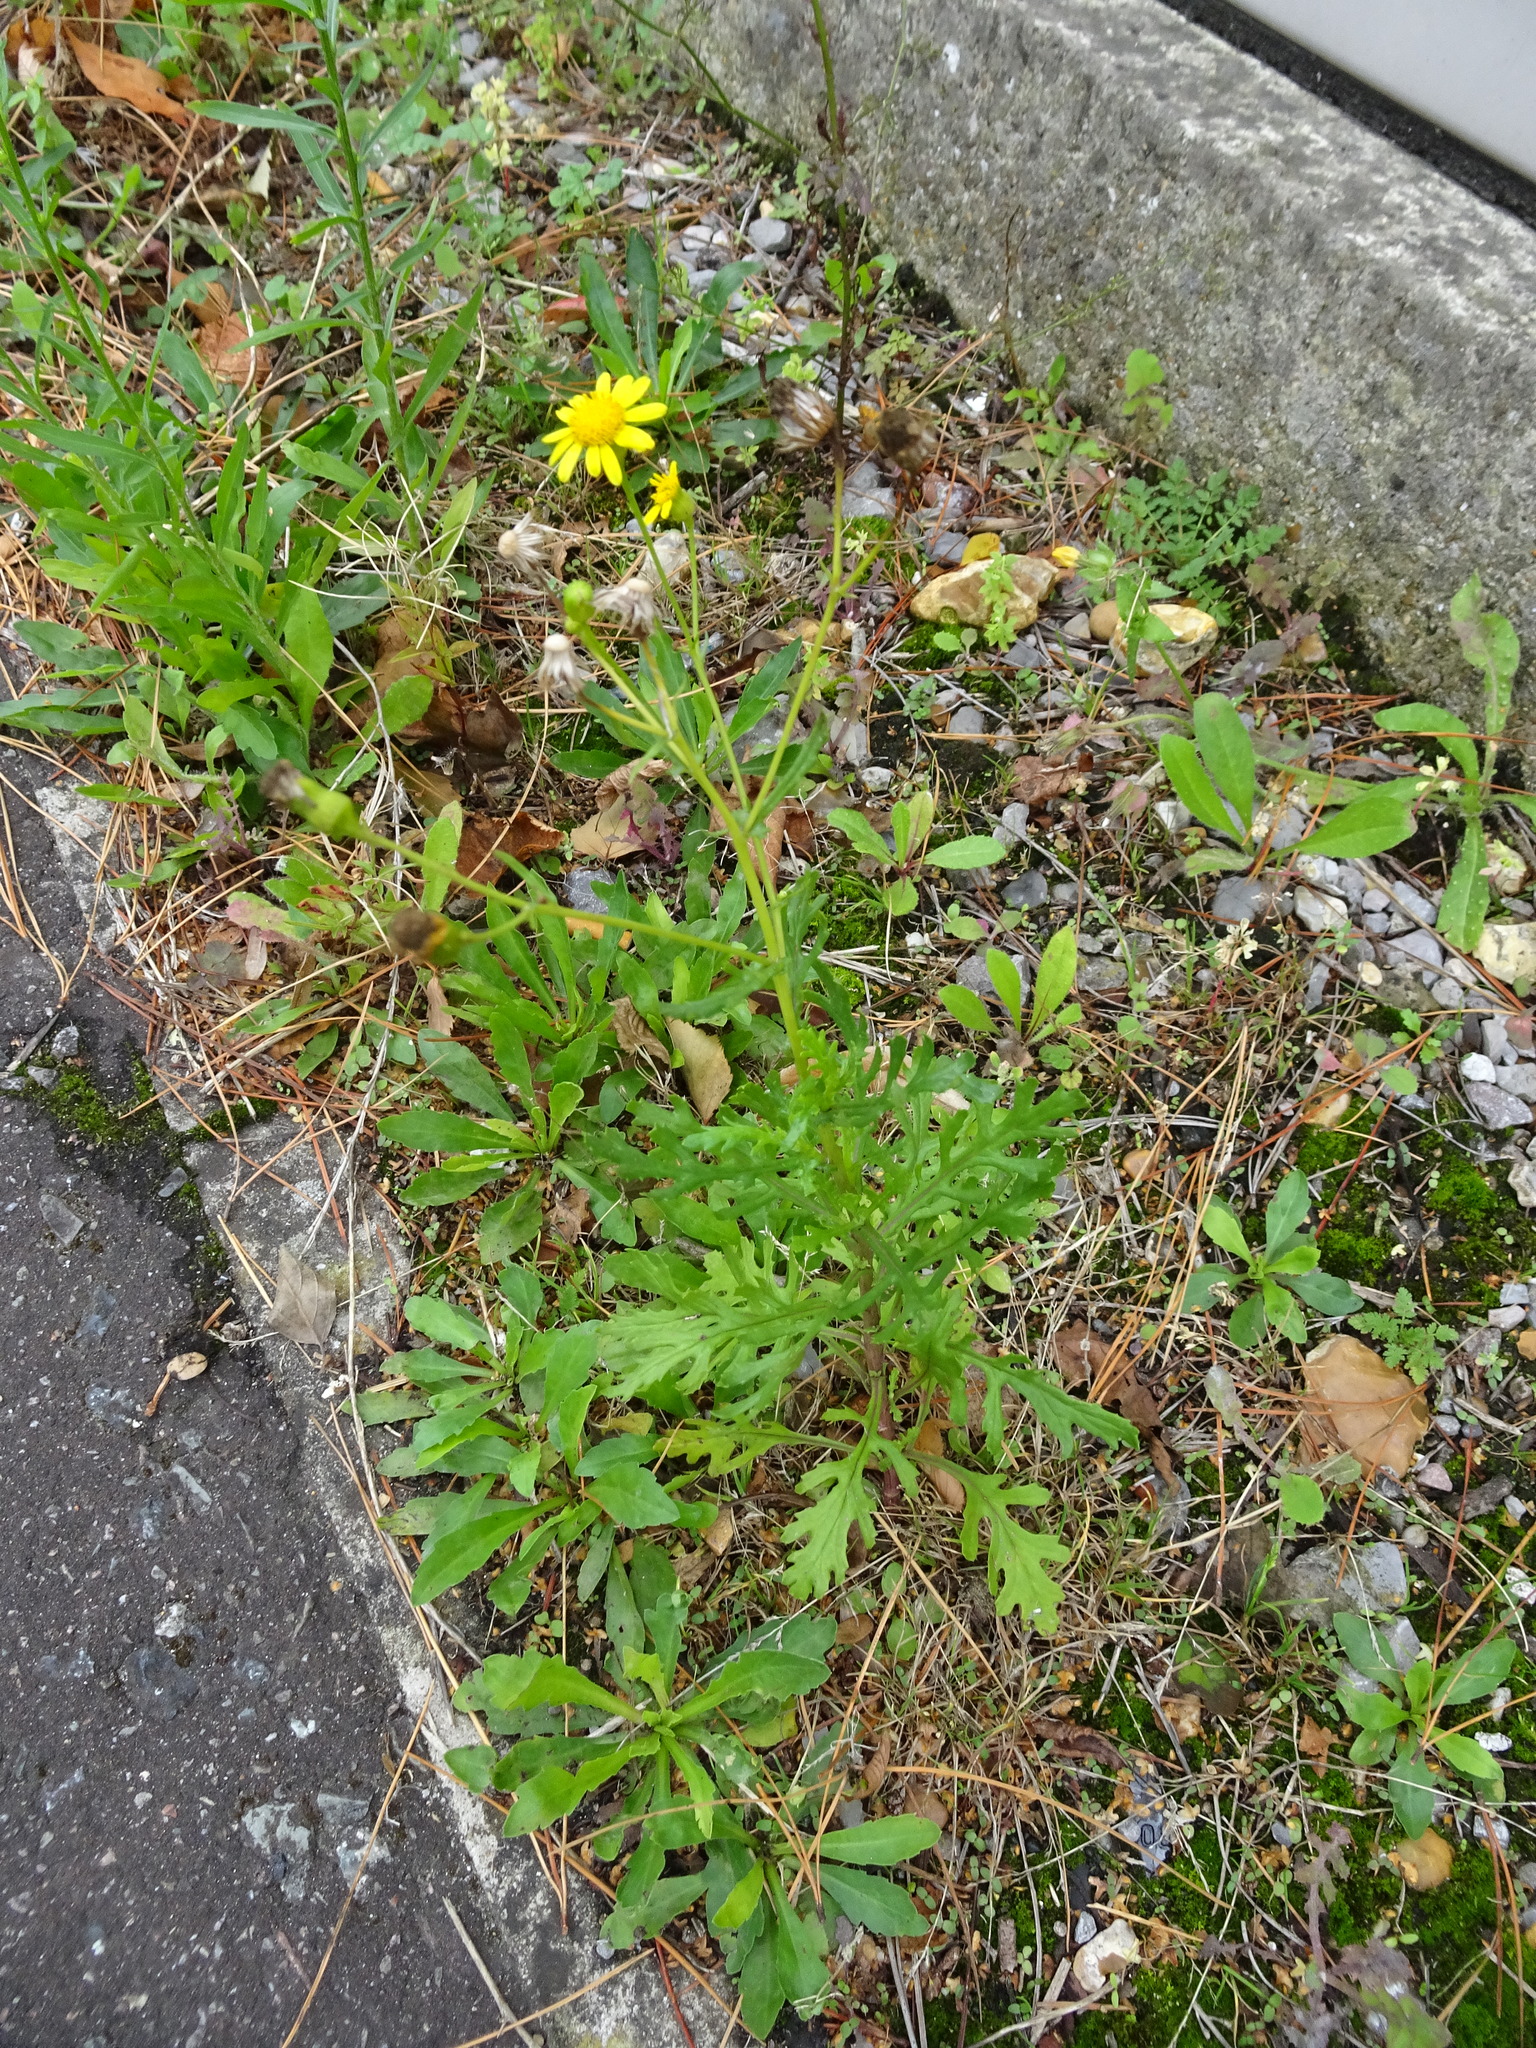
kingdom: Plantae
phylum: Tracheophyta
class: Magnoliopsida
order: Asterales
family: Asteraceae
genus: Senecio
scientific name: Senecio squalidus
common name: Oxford ragwort
